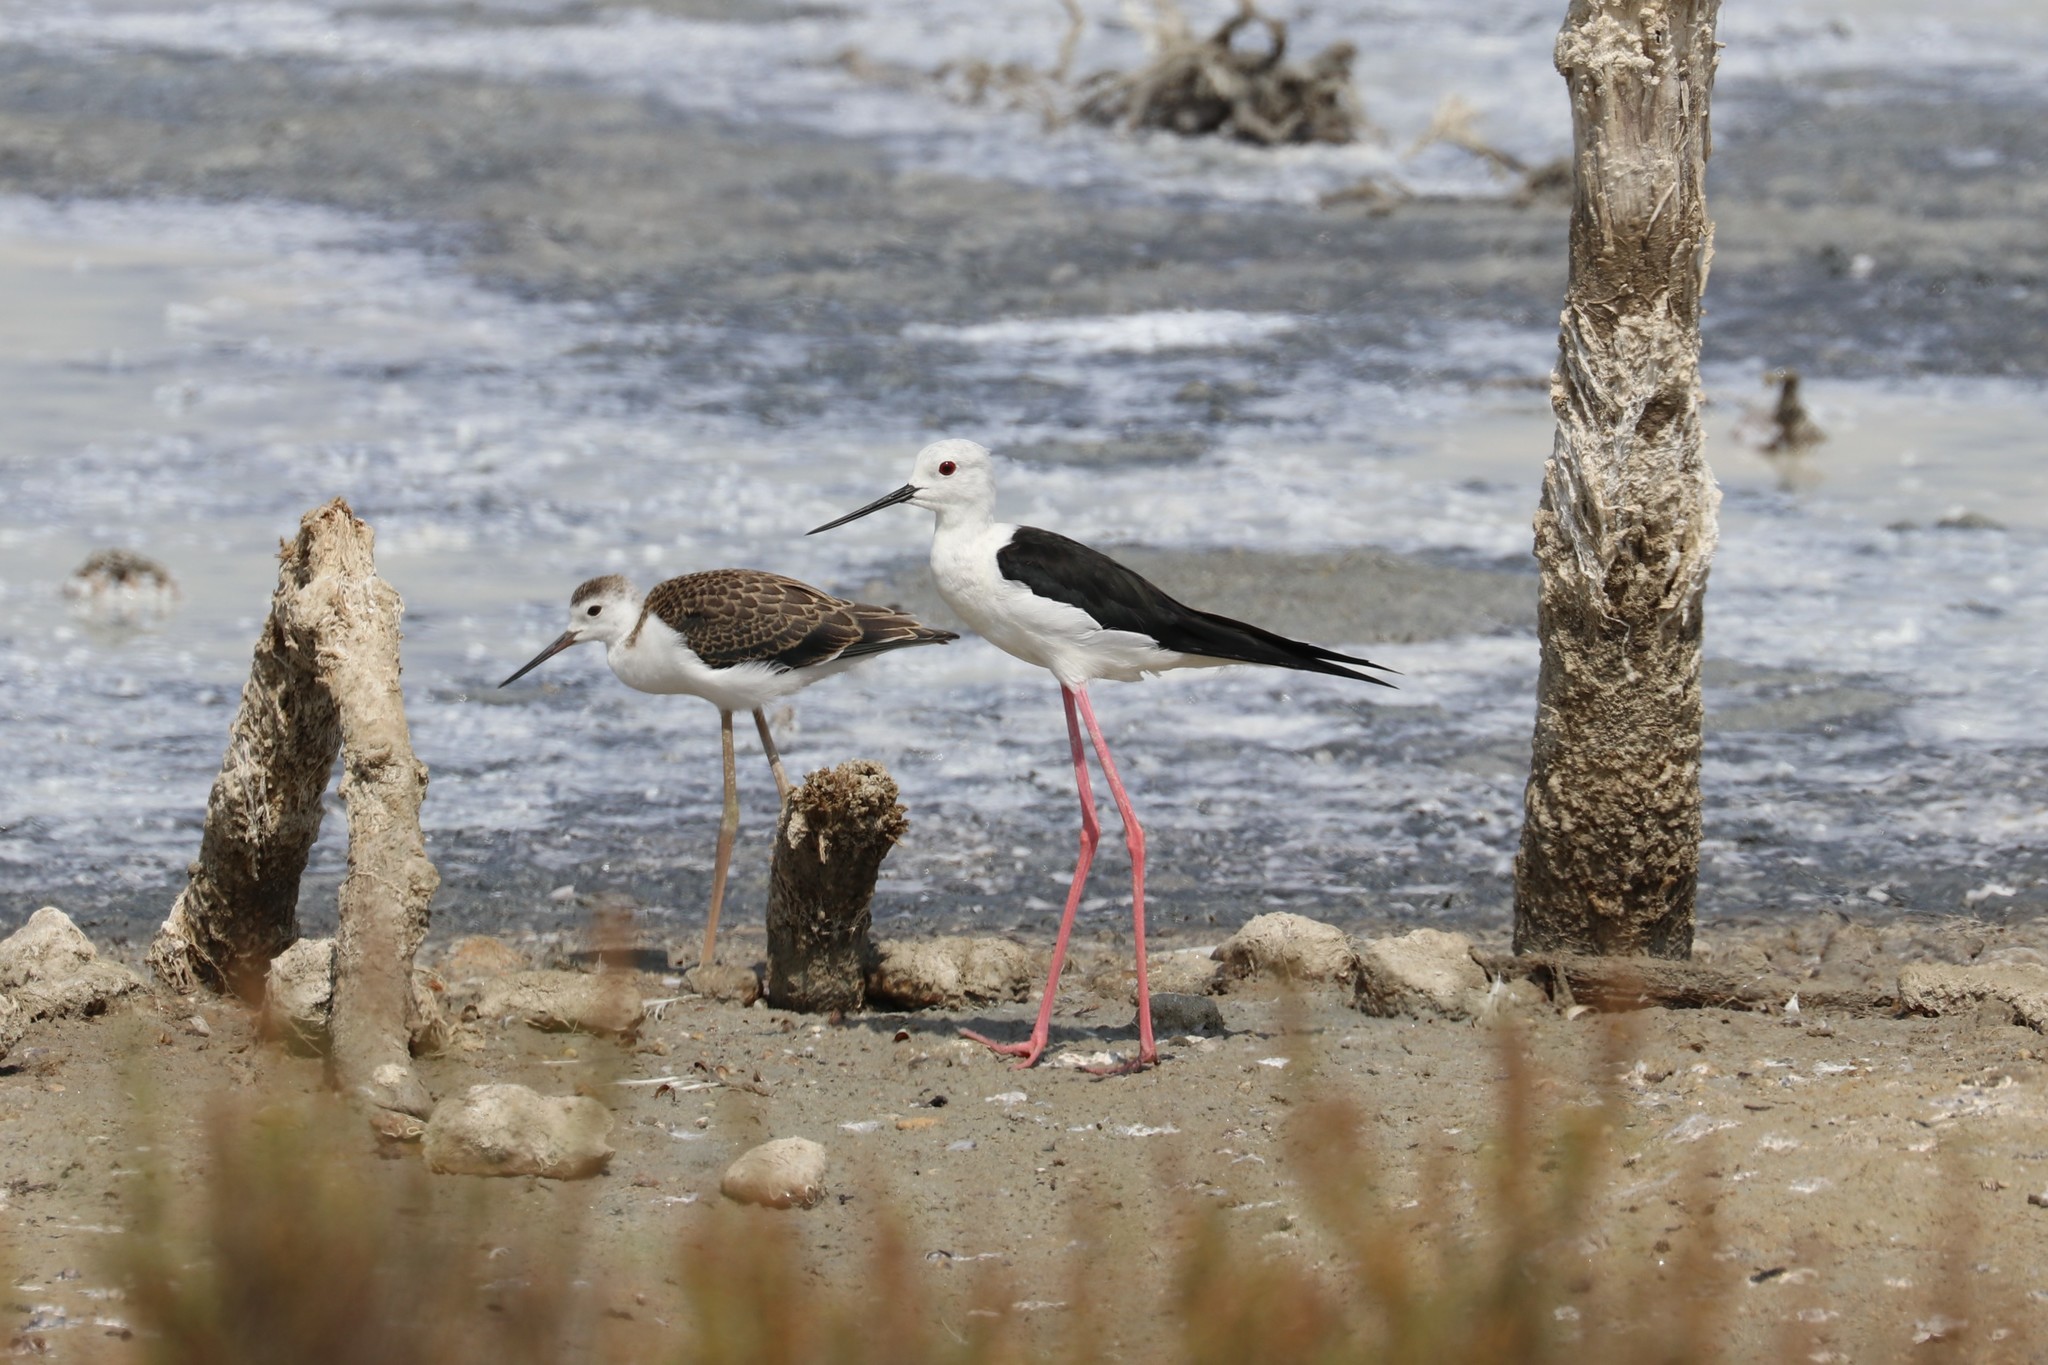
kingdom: Animalia
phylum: Chordata
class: Aves
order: Charadriiformes
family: Recurvirostridae
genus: Himantopus
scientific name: Himantopus himantopus
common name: Black-winged stilt
